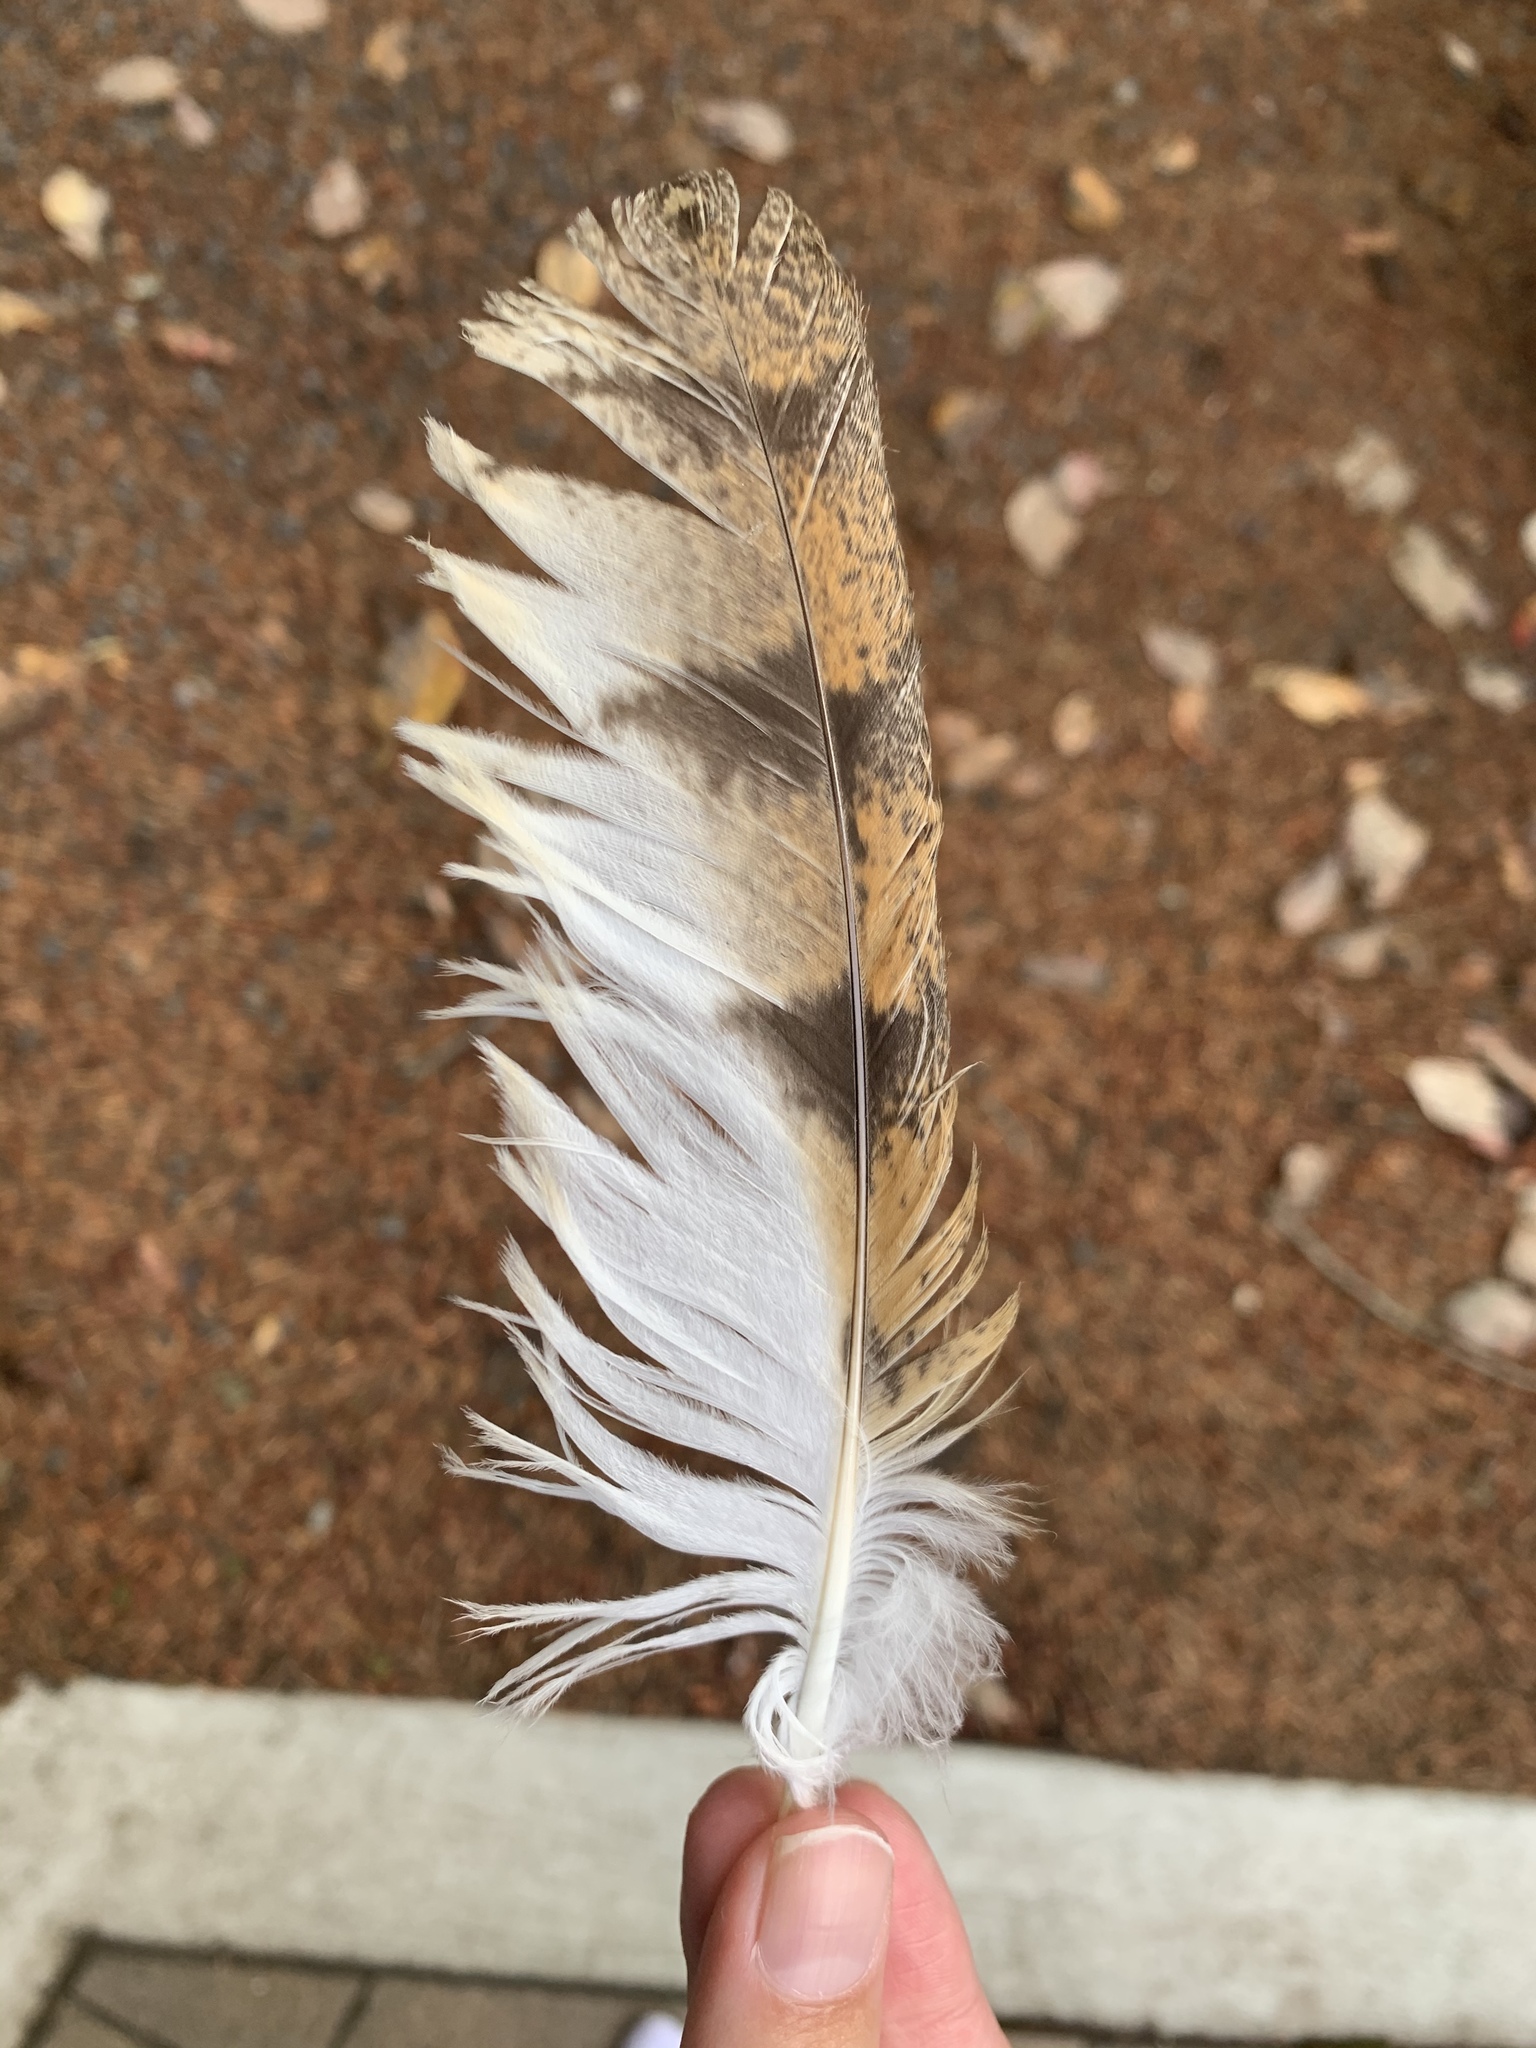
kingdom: Animalia
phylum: Chordata
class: Aves
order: Strigiformes
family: Tytonidae
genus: Tyto
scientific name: Tyto alba
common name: Barn owl
